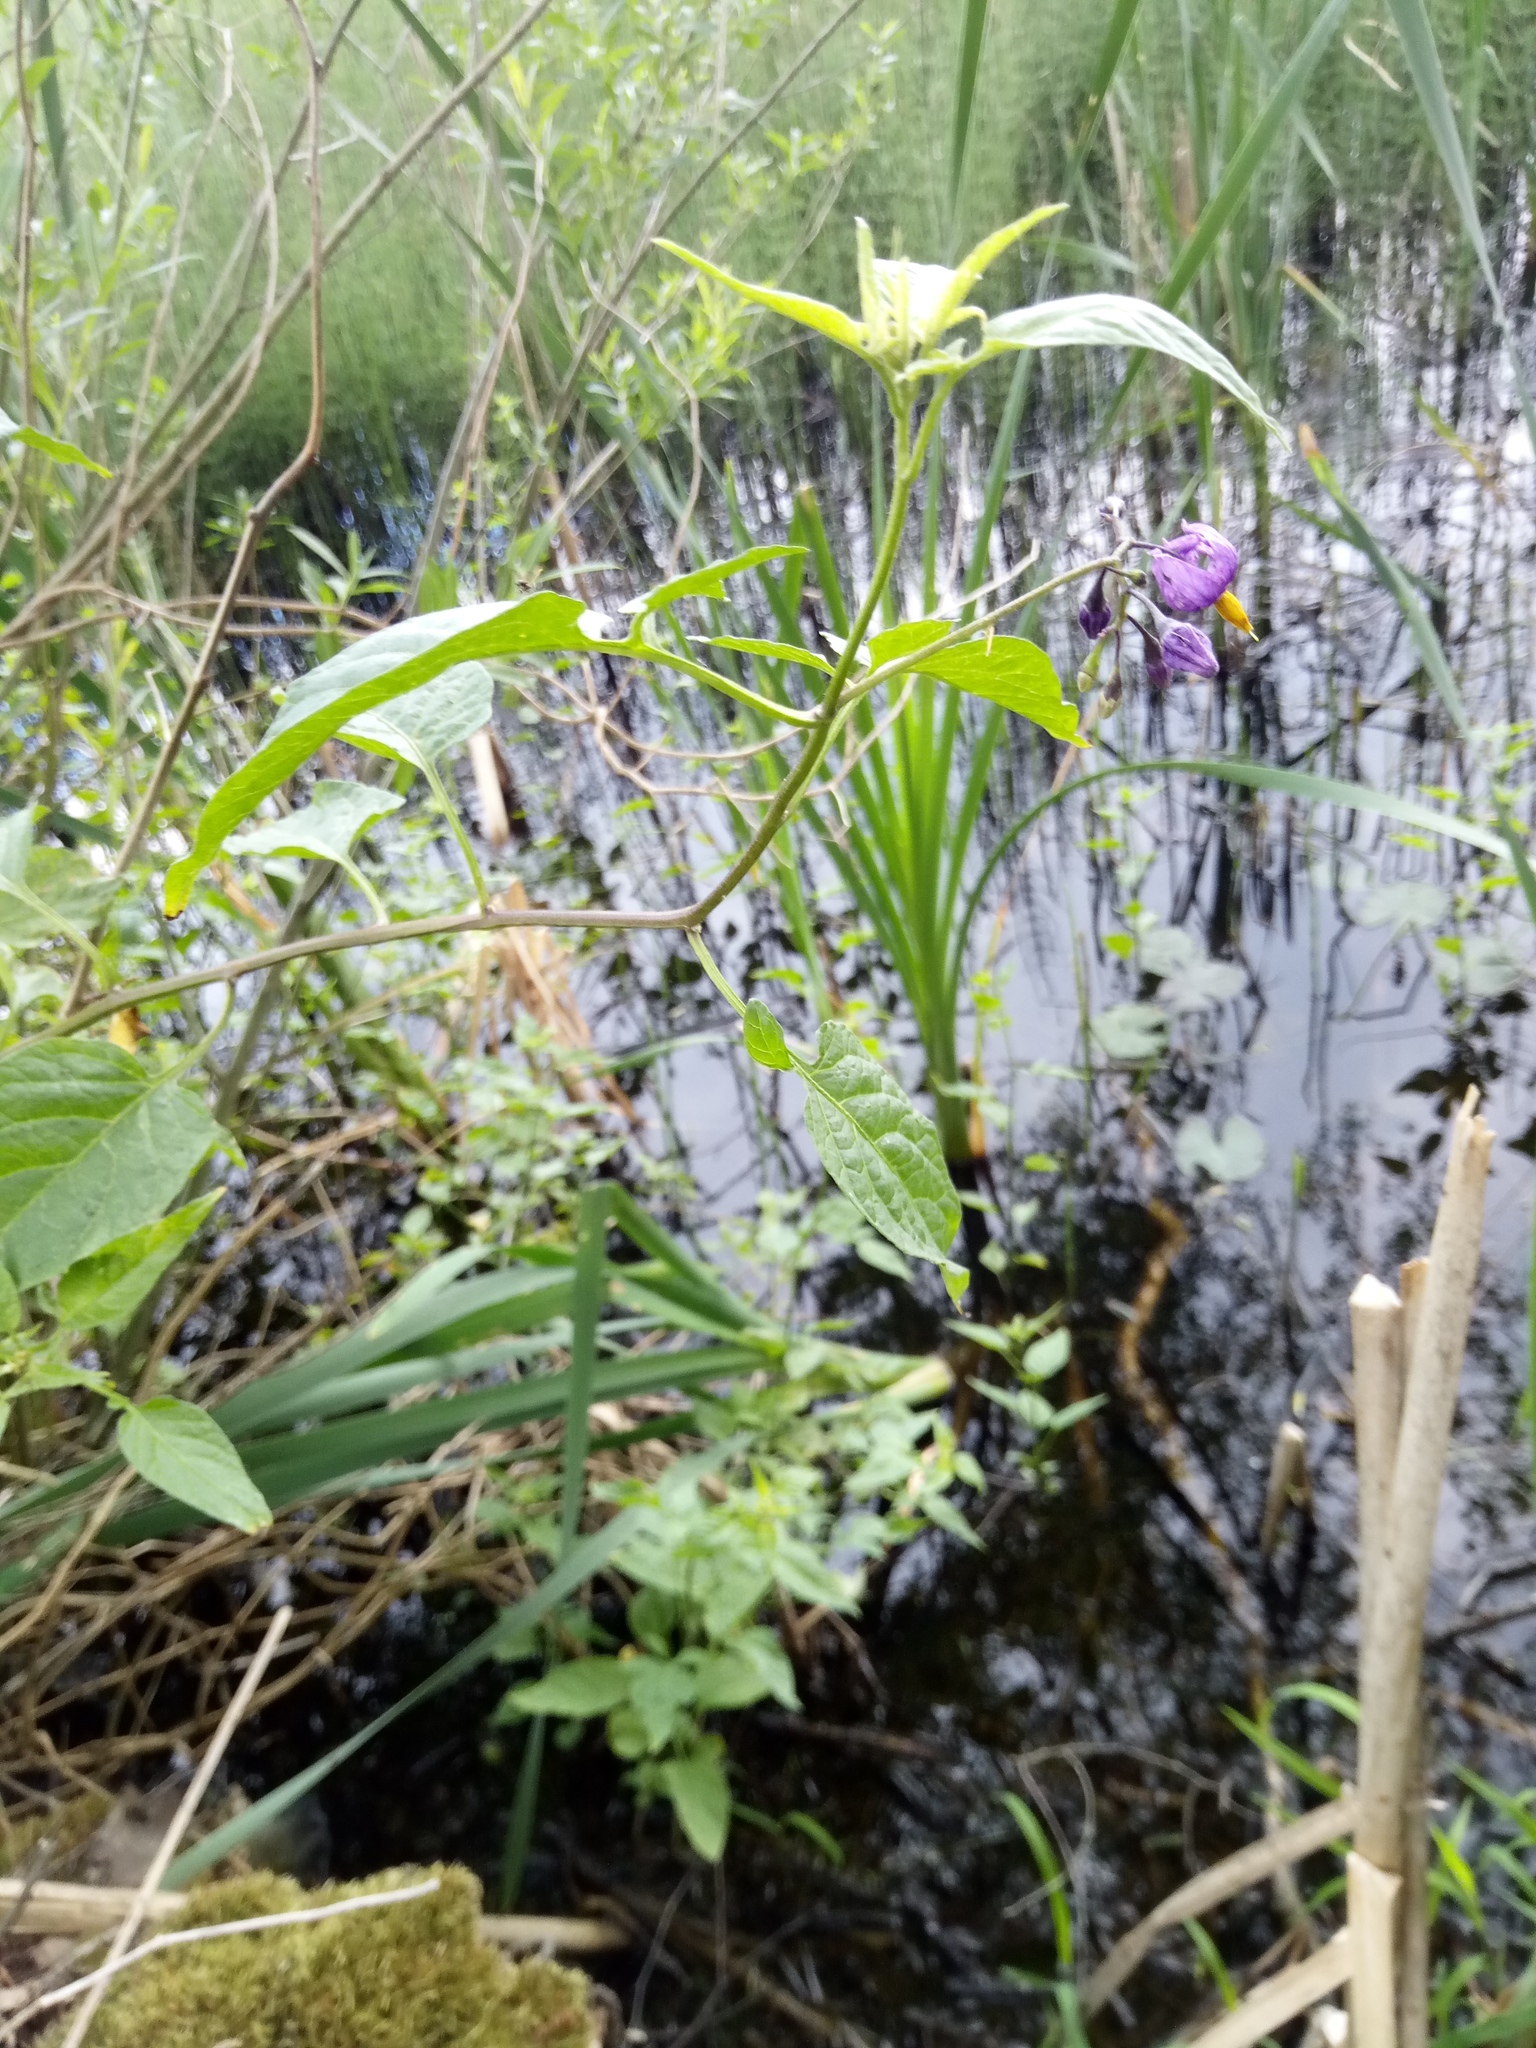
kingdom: Plantae
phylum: Tracheophyta
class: Magnoliopsida
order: Solanales
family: Solanaceae
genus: Solanum
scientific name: Solanum dulcamara
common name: Climbing nightshade
